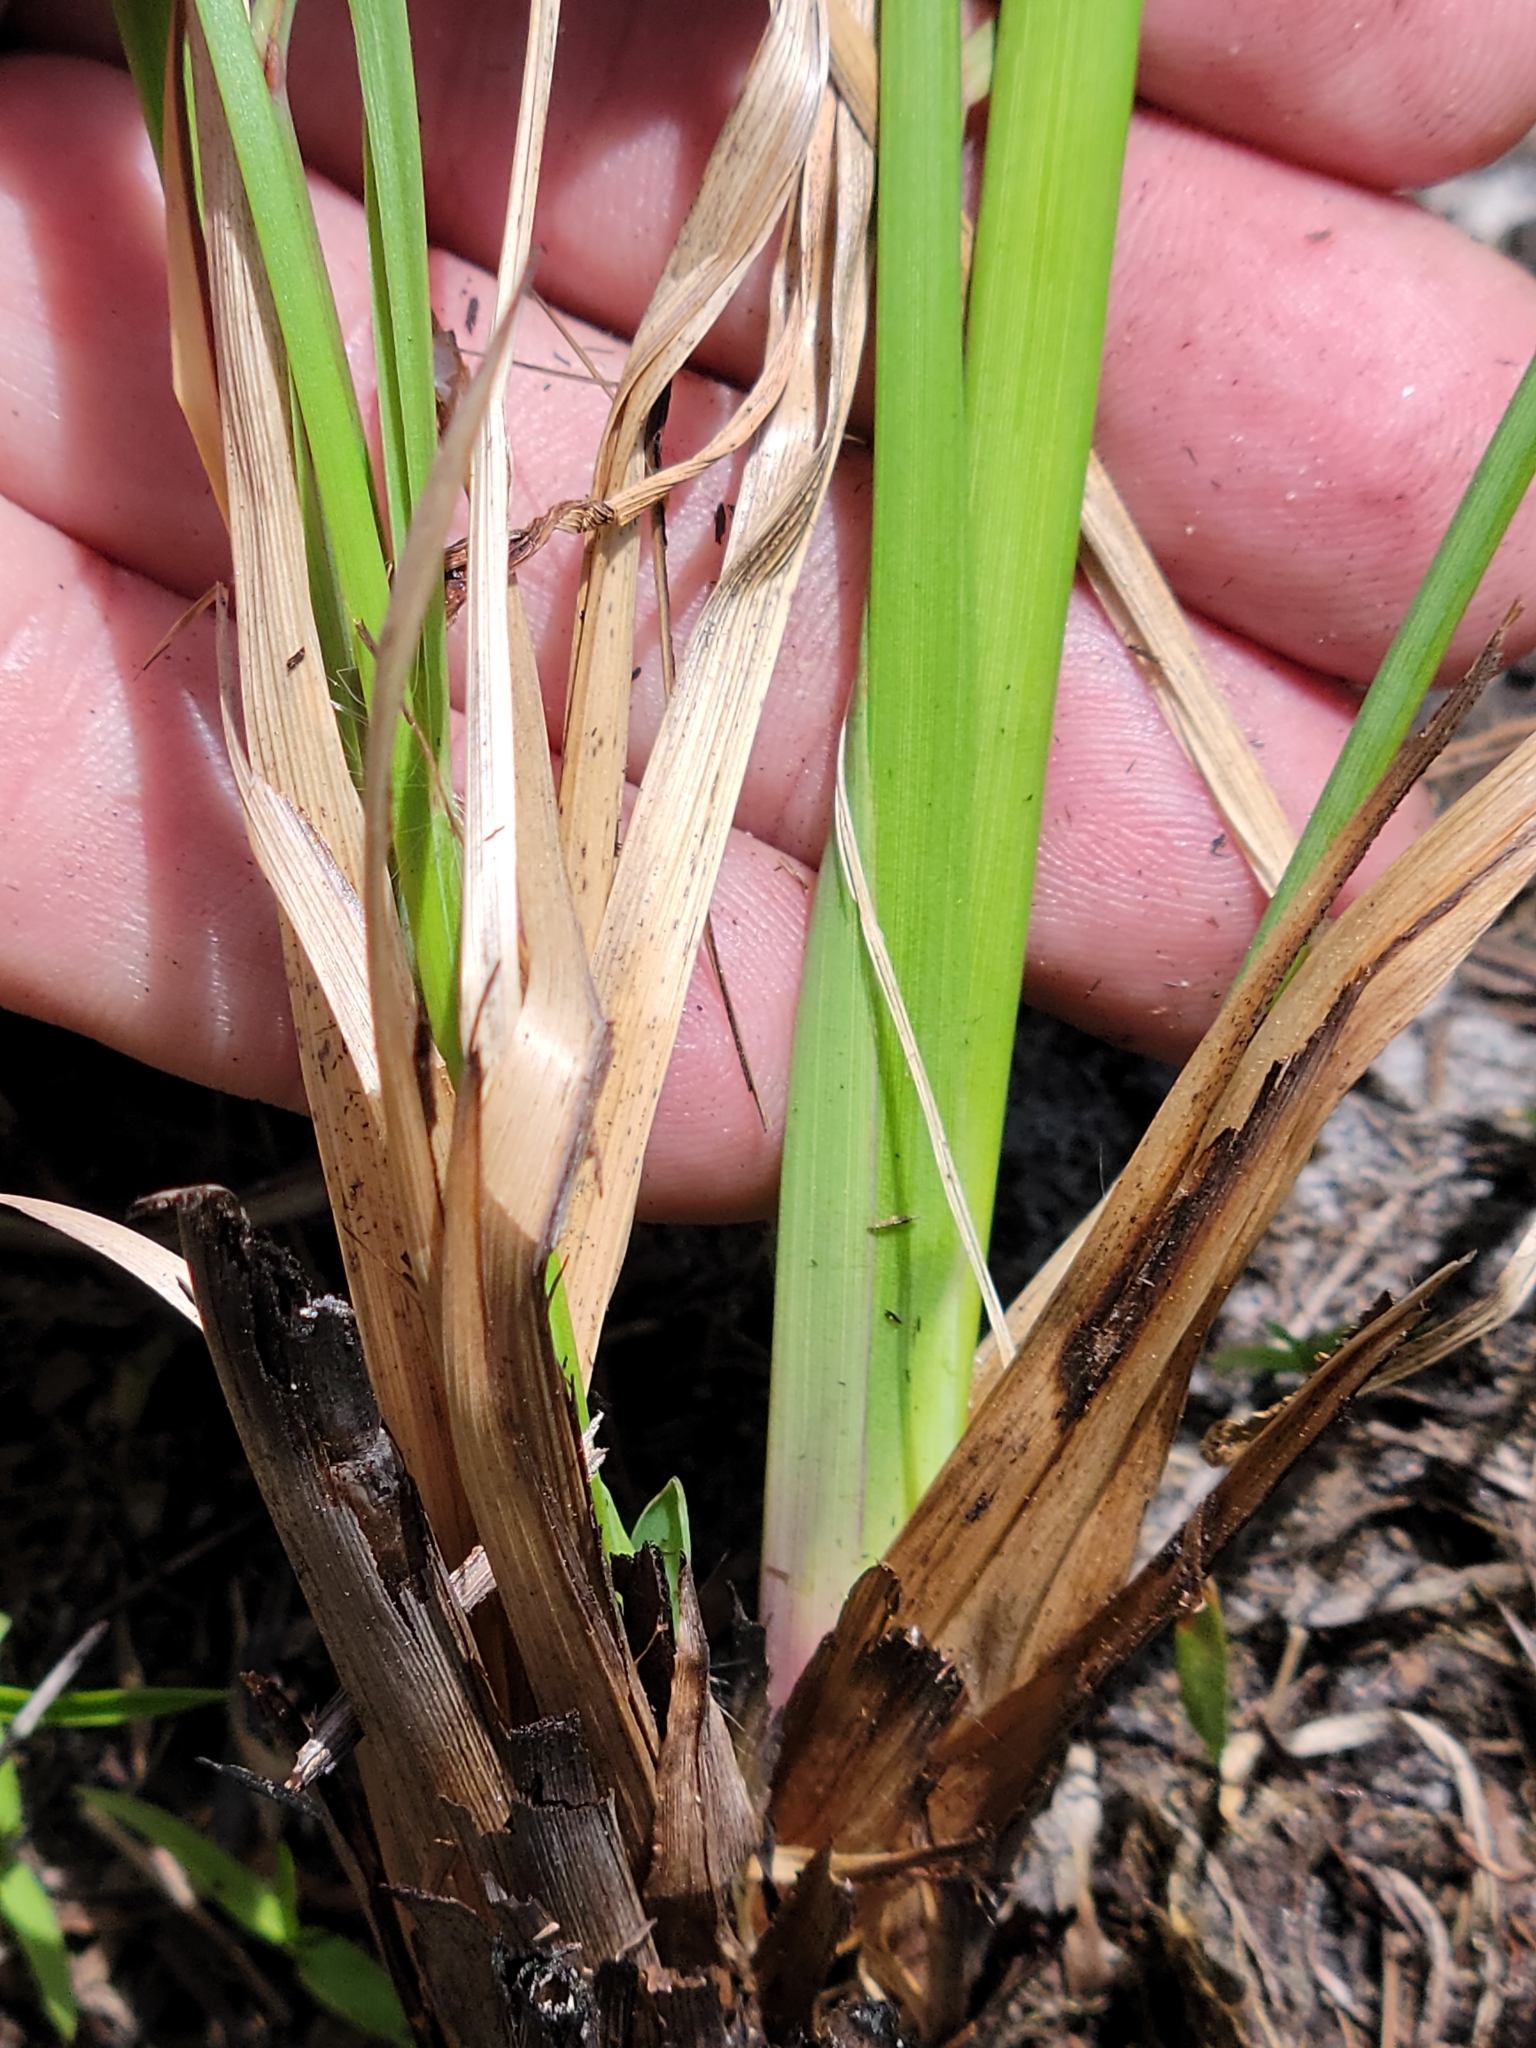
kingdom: Plantae
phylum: Tracheophyta
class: Liliopsida
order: Poales
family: Poaceae
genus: Paspalum
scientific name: Paspalum praecox
